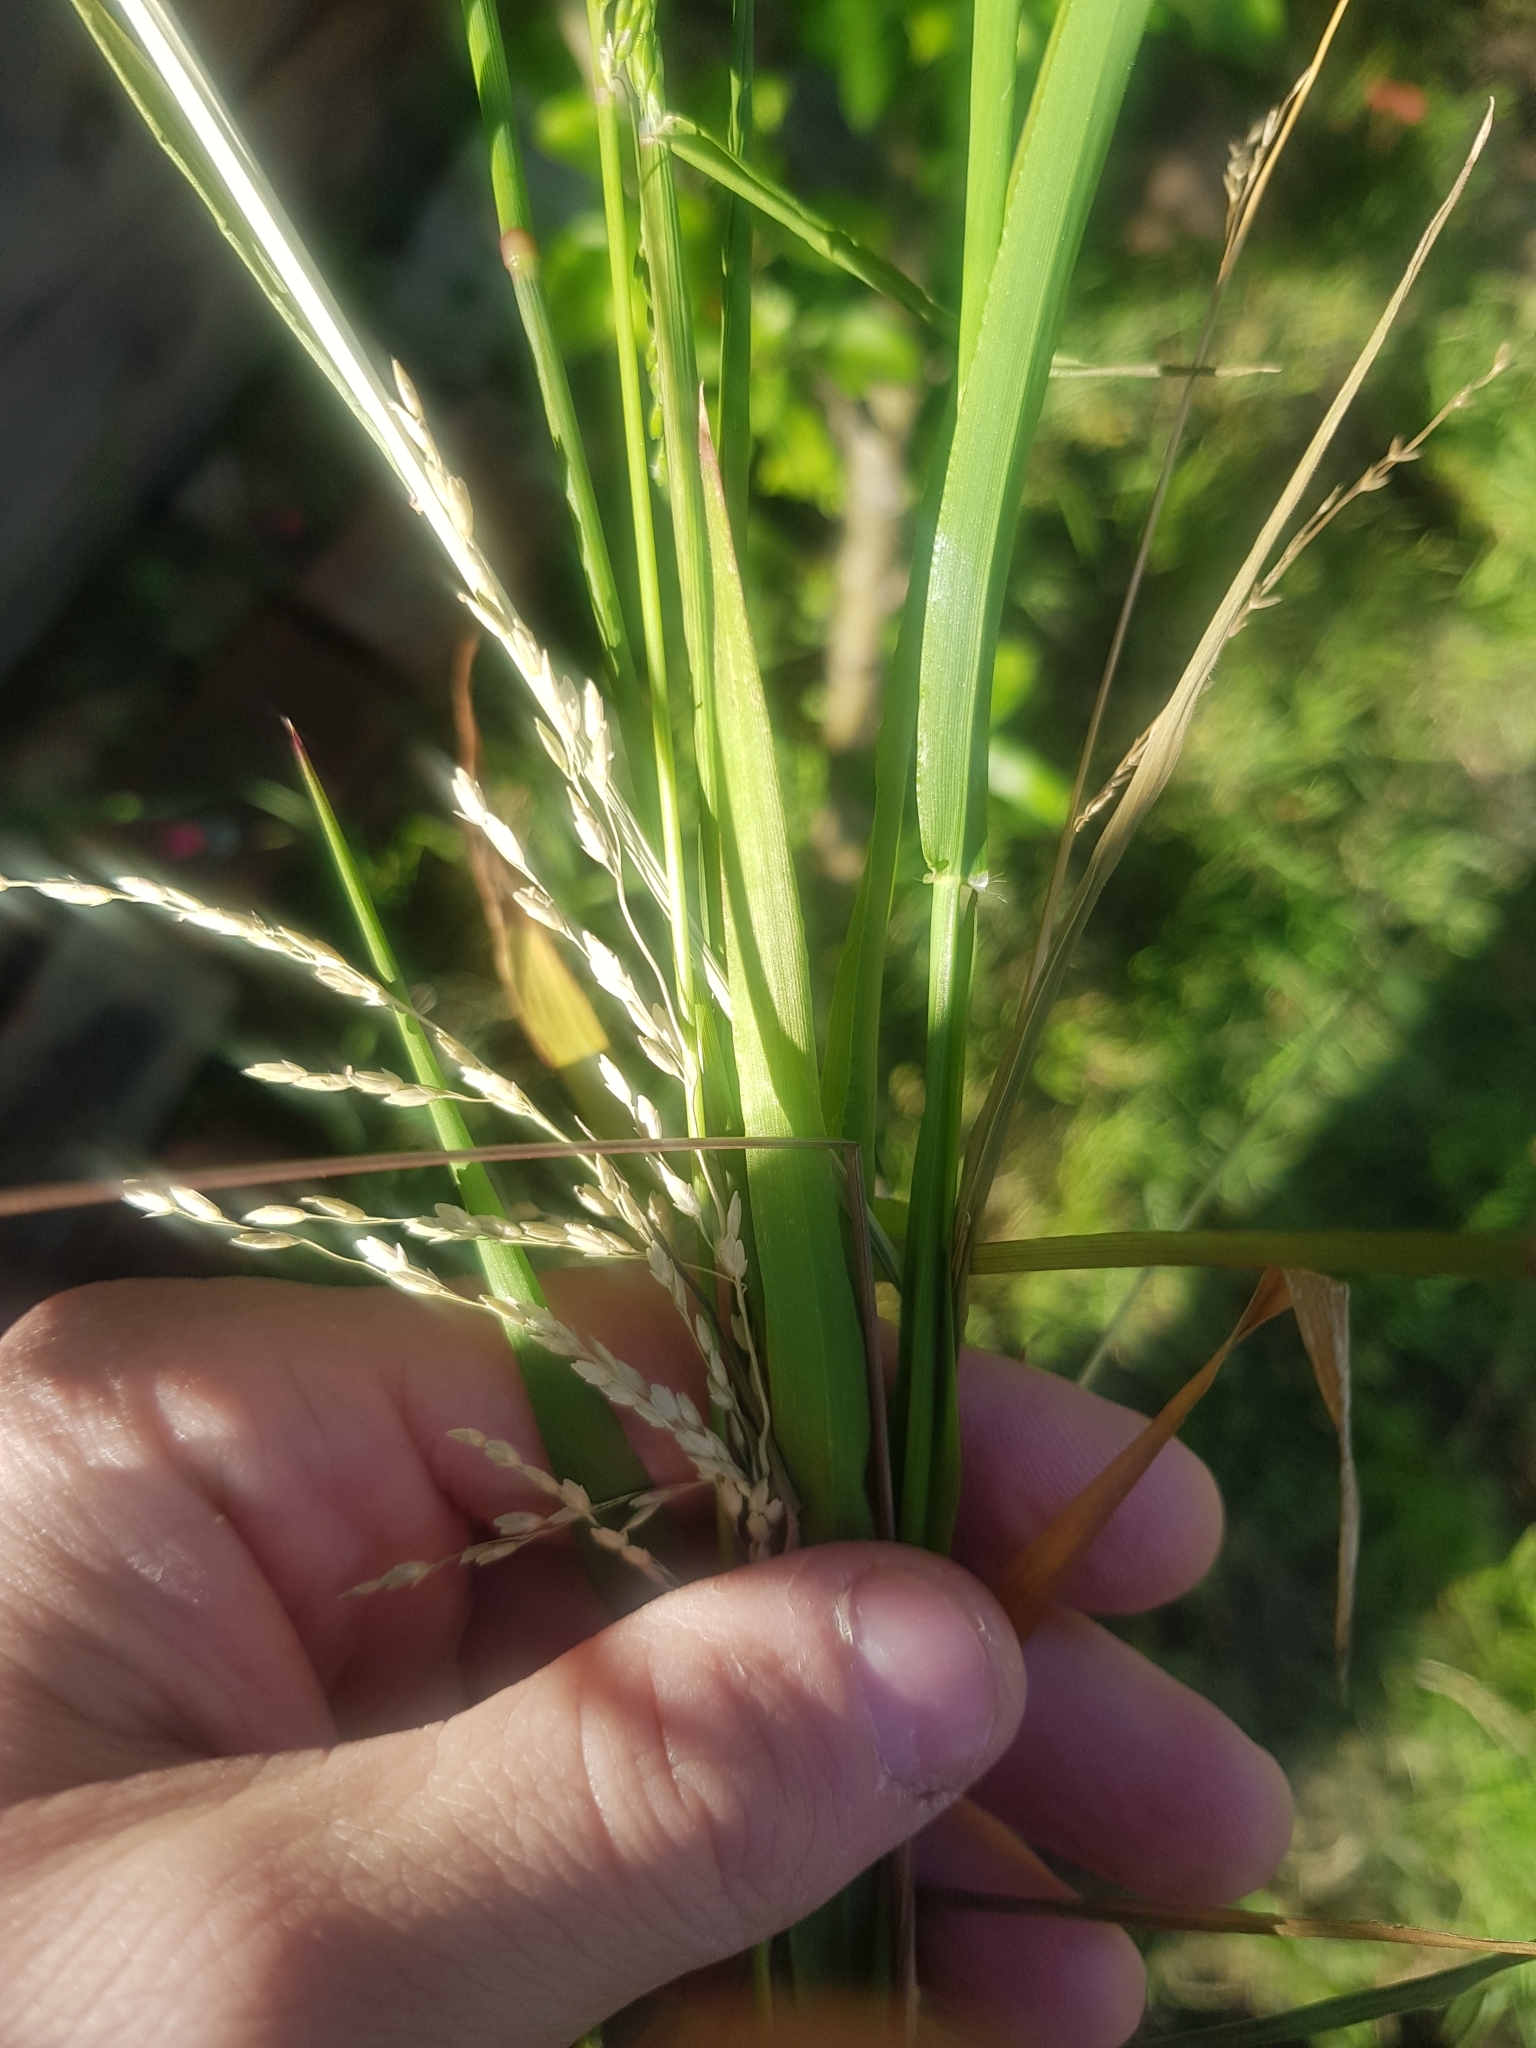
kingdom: Plantae
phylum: Tracheophyta
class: Liliopsida
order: Poales
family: Poaceae
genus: Ehrharta
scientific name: Ehrharta erecta
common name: Panic veldtgrass
